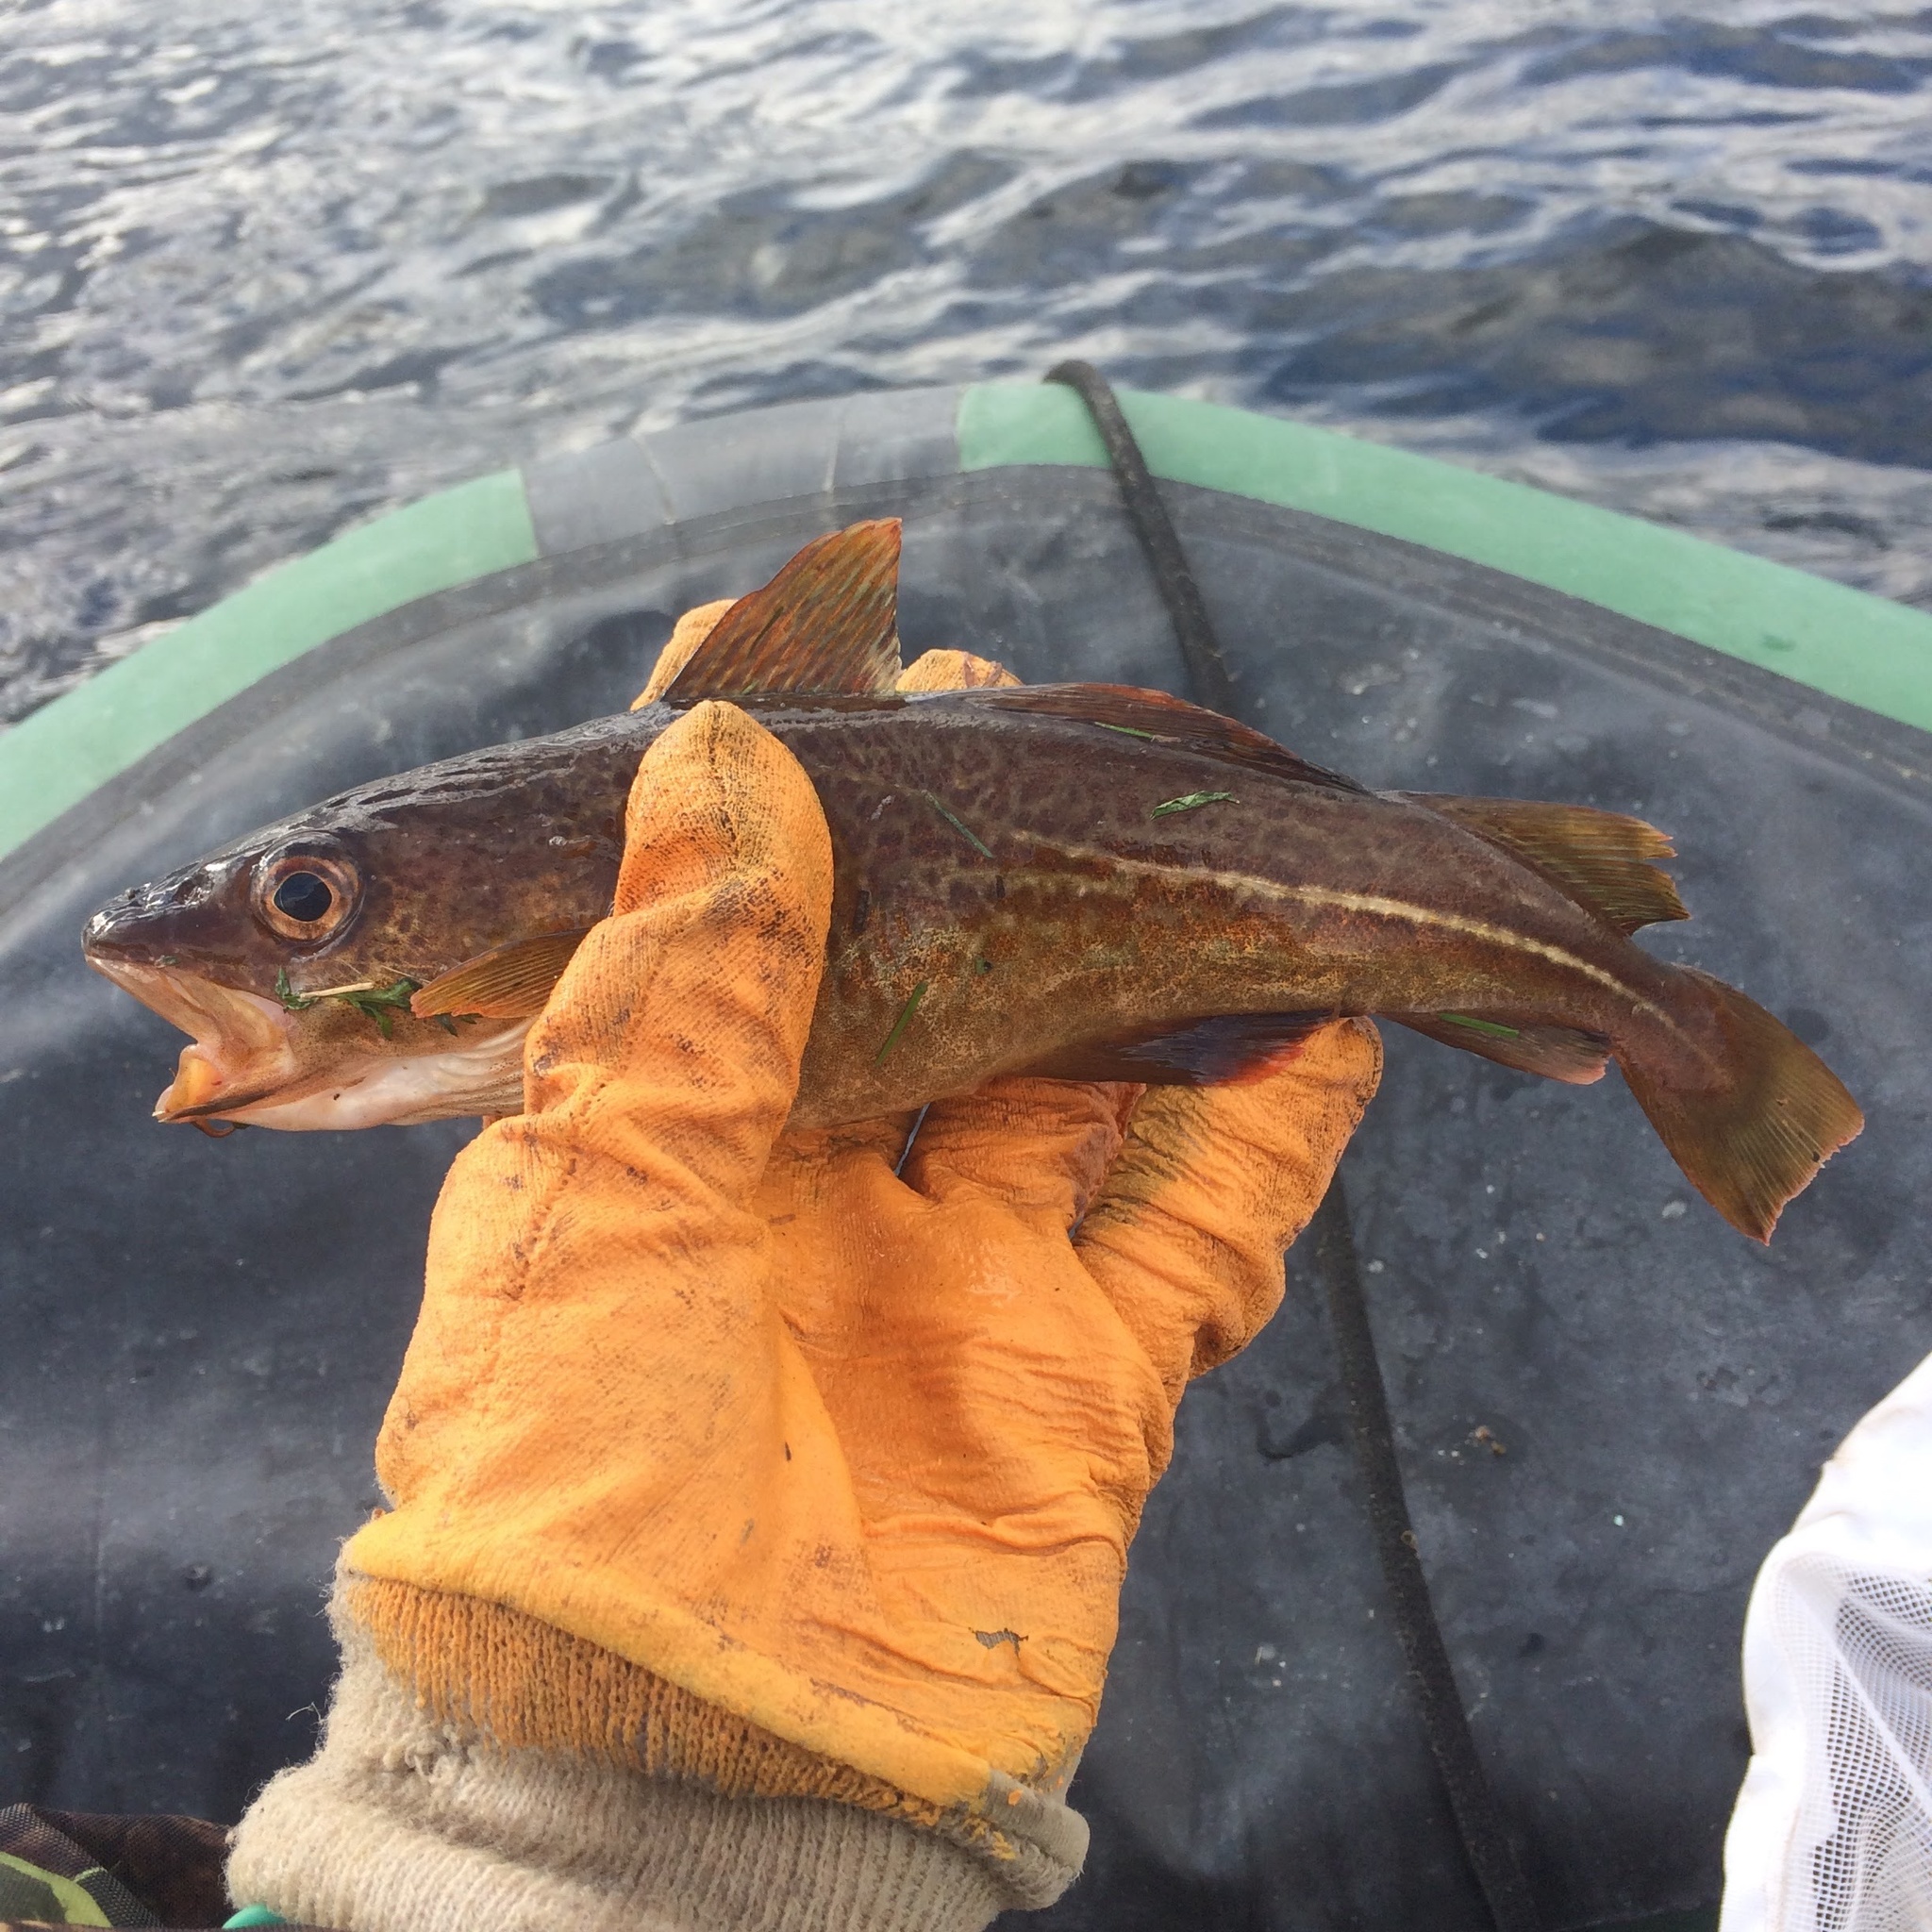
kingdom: Animalia
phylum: Chordata
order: Gadiformes
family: Gadidae
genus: Gadus
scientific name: Gadus morhua
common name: Atlantic cod
